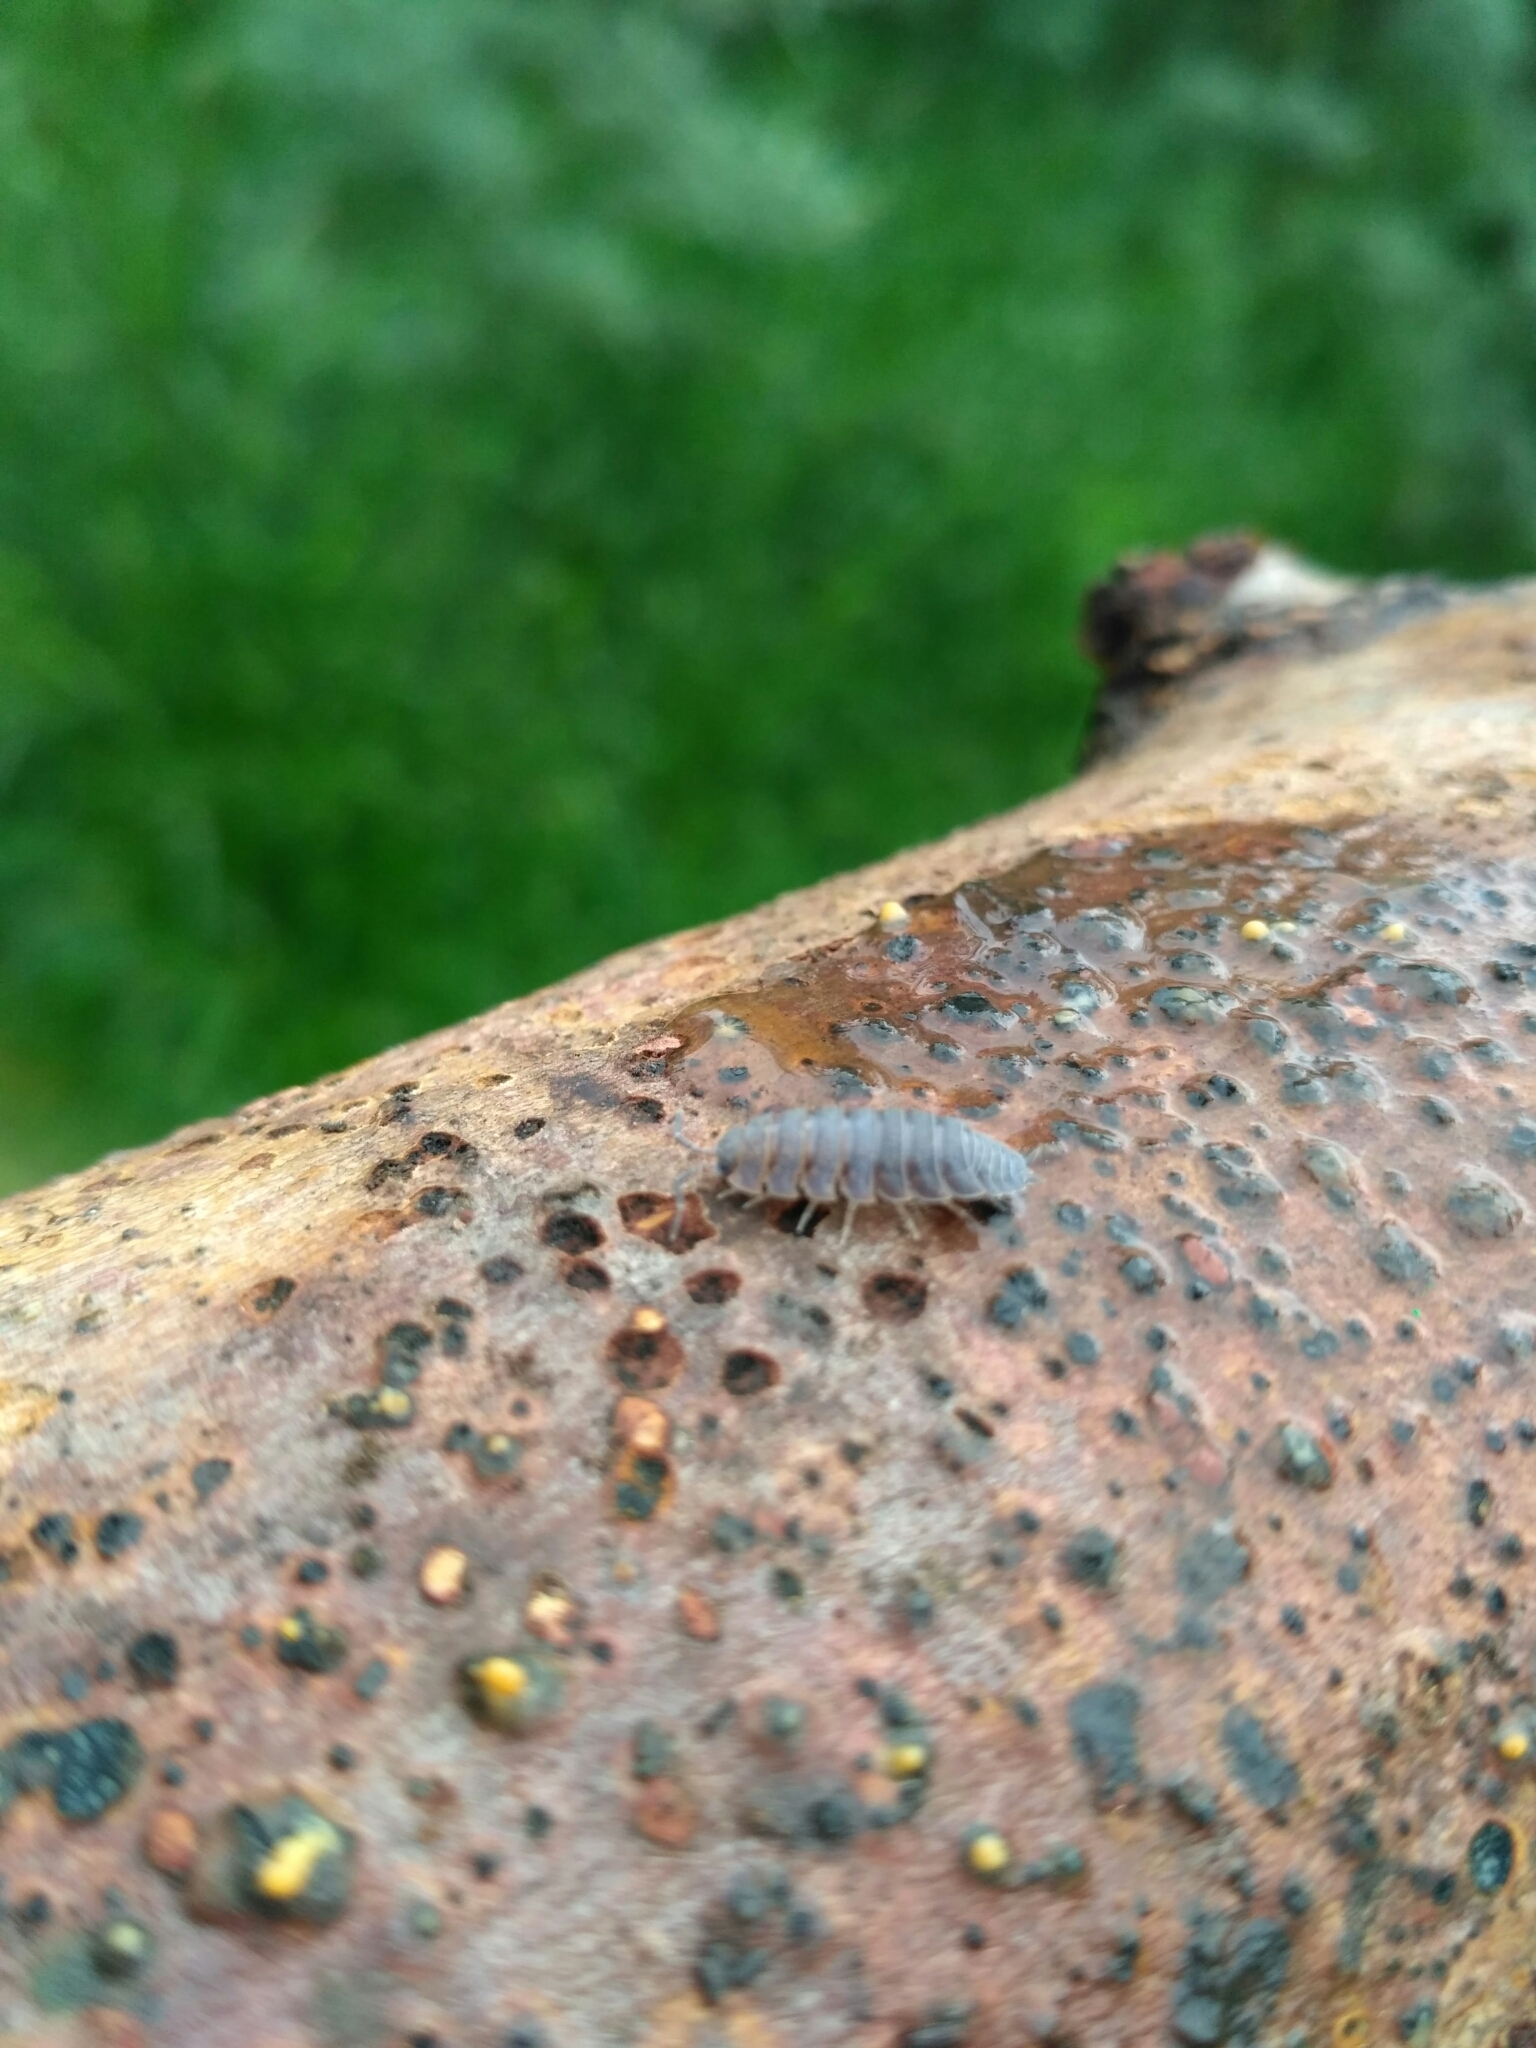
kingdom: Animalia
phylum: Arthropoda
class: Malacostraca
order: Isopoda
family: Porcellionidae
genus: Porcellio
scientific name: Porcellio scaber
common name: Common rough woodlouse
